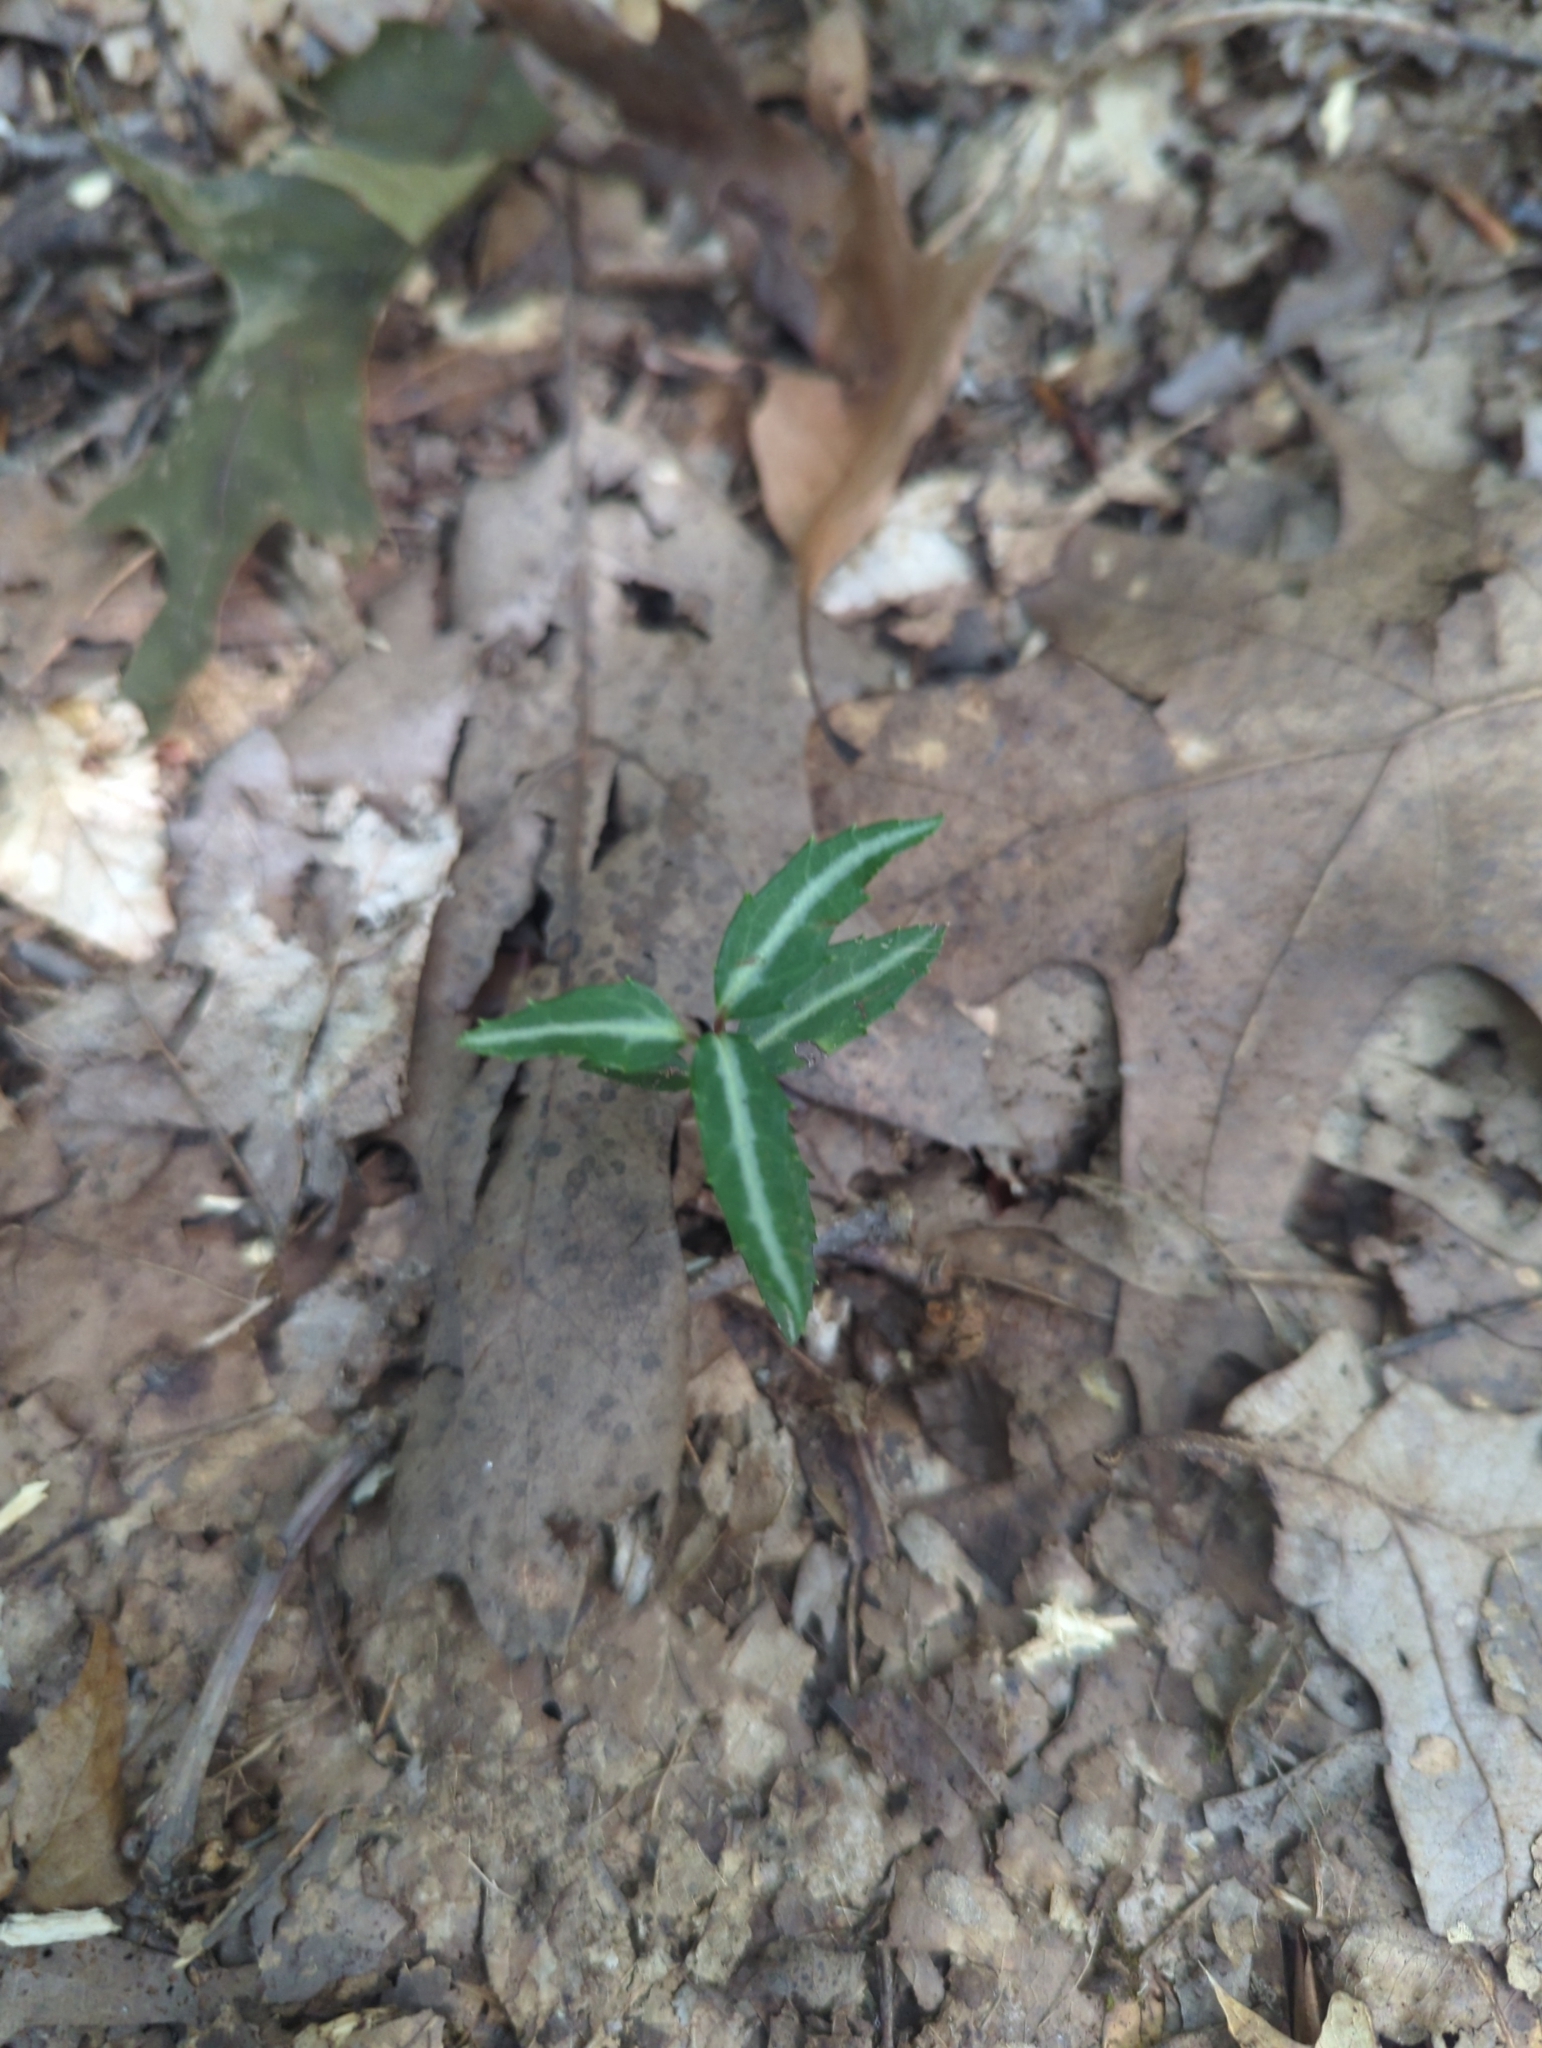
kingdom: Plantae
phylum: Tracheophyta
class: Magnoliopsida
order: Ericales
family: Ericaceae
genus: Chimaphila
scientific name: Chimaphila maculata
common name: Spotted pipsissewa
